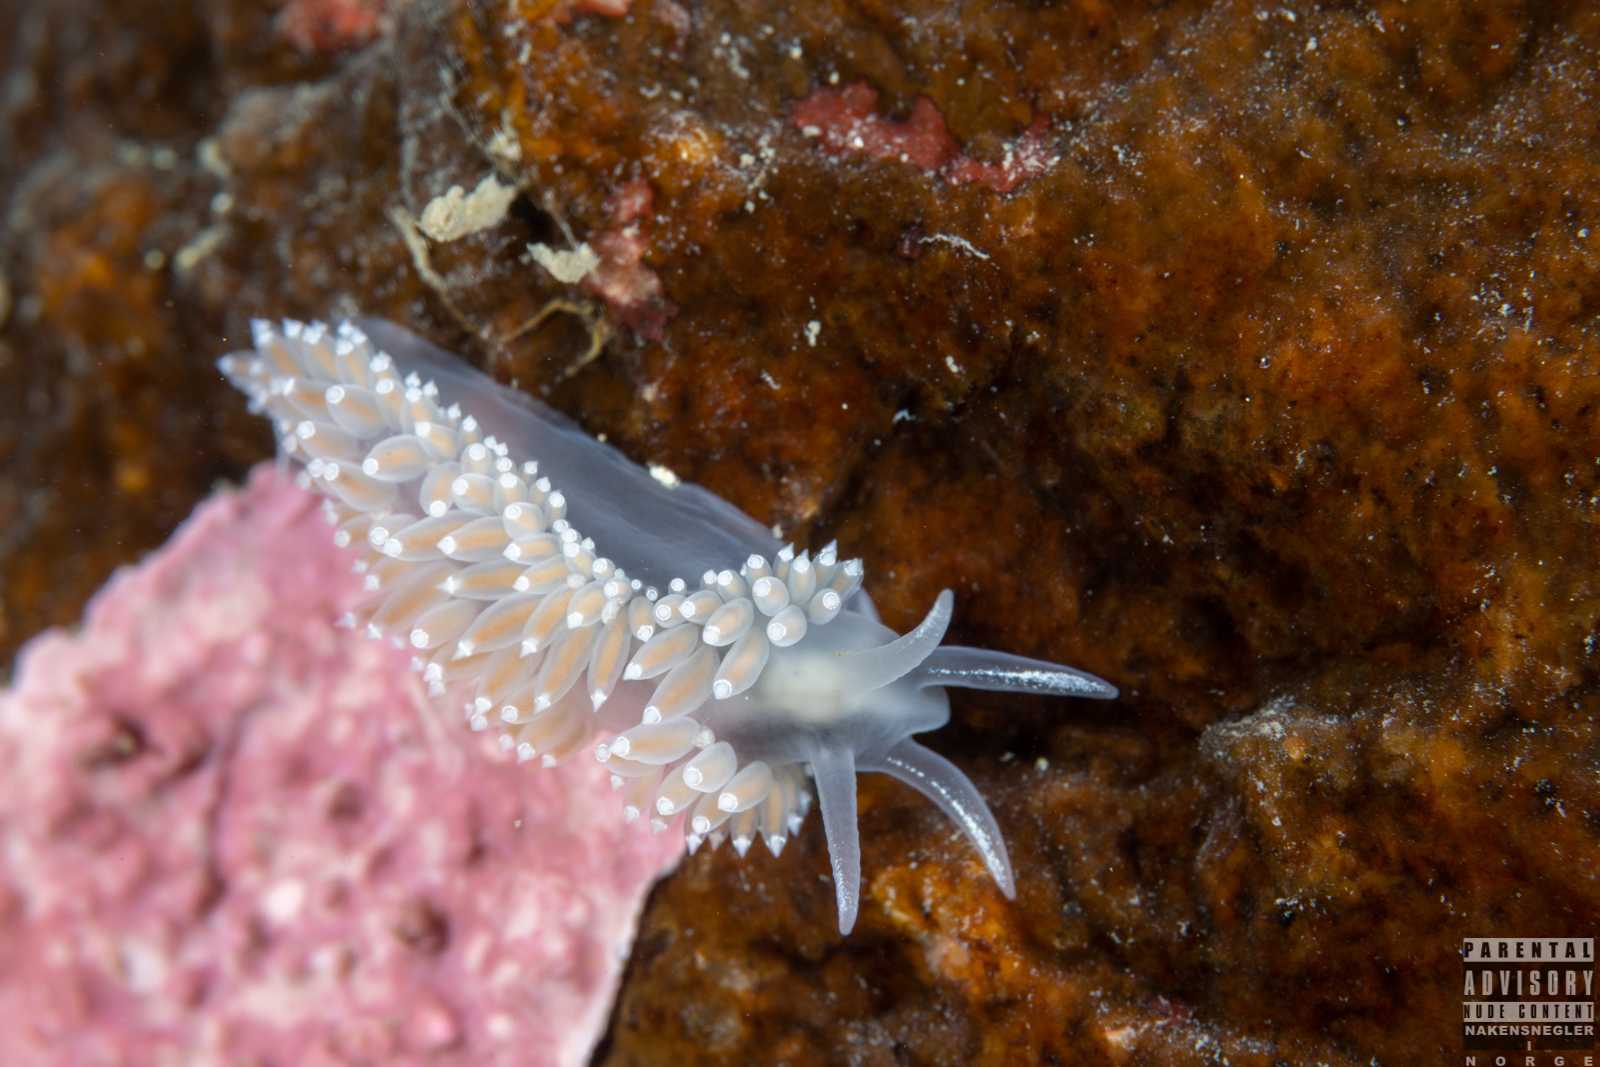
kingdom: Animalia
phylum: Mollusca
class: Gastropoda
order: Nudibranchia
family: Coryphellidae
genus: Coryphella
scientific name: Coryphella verrucosa
